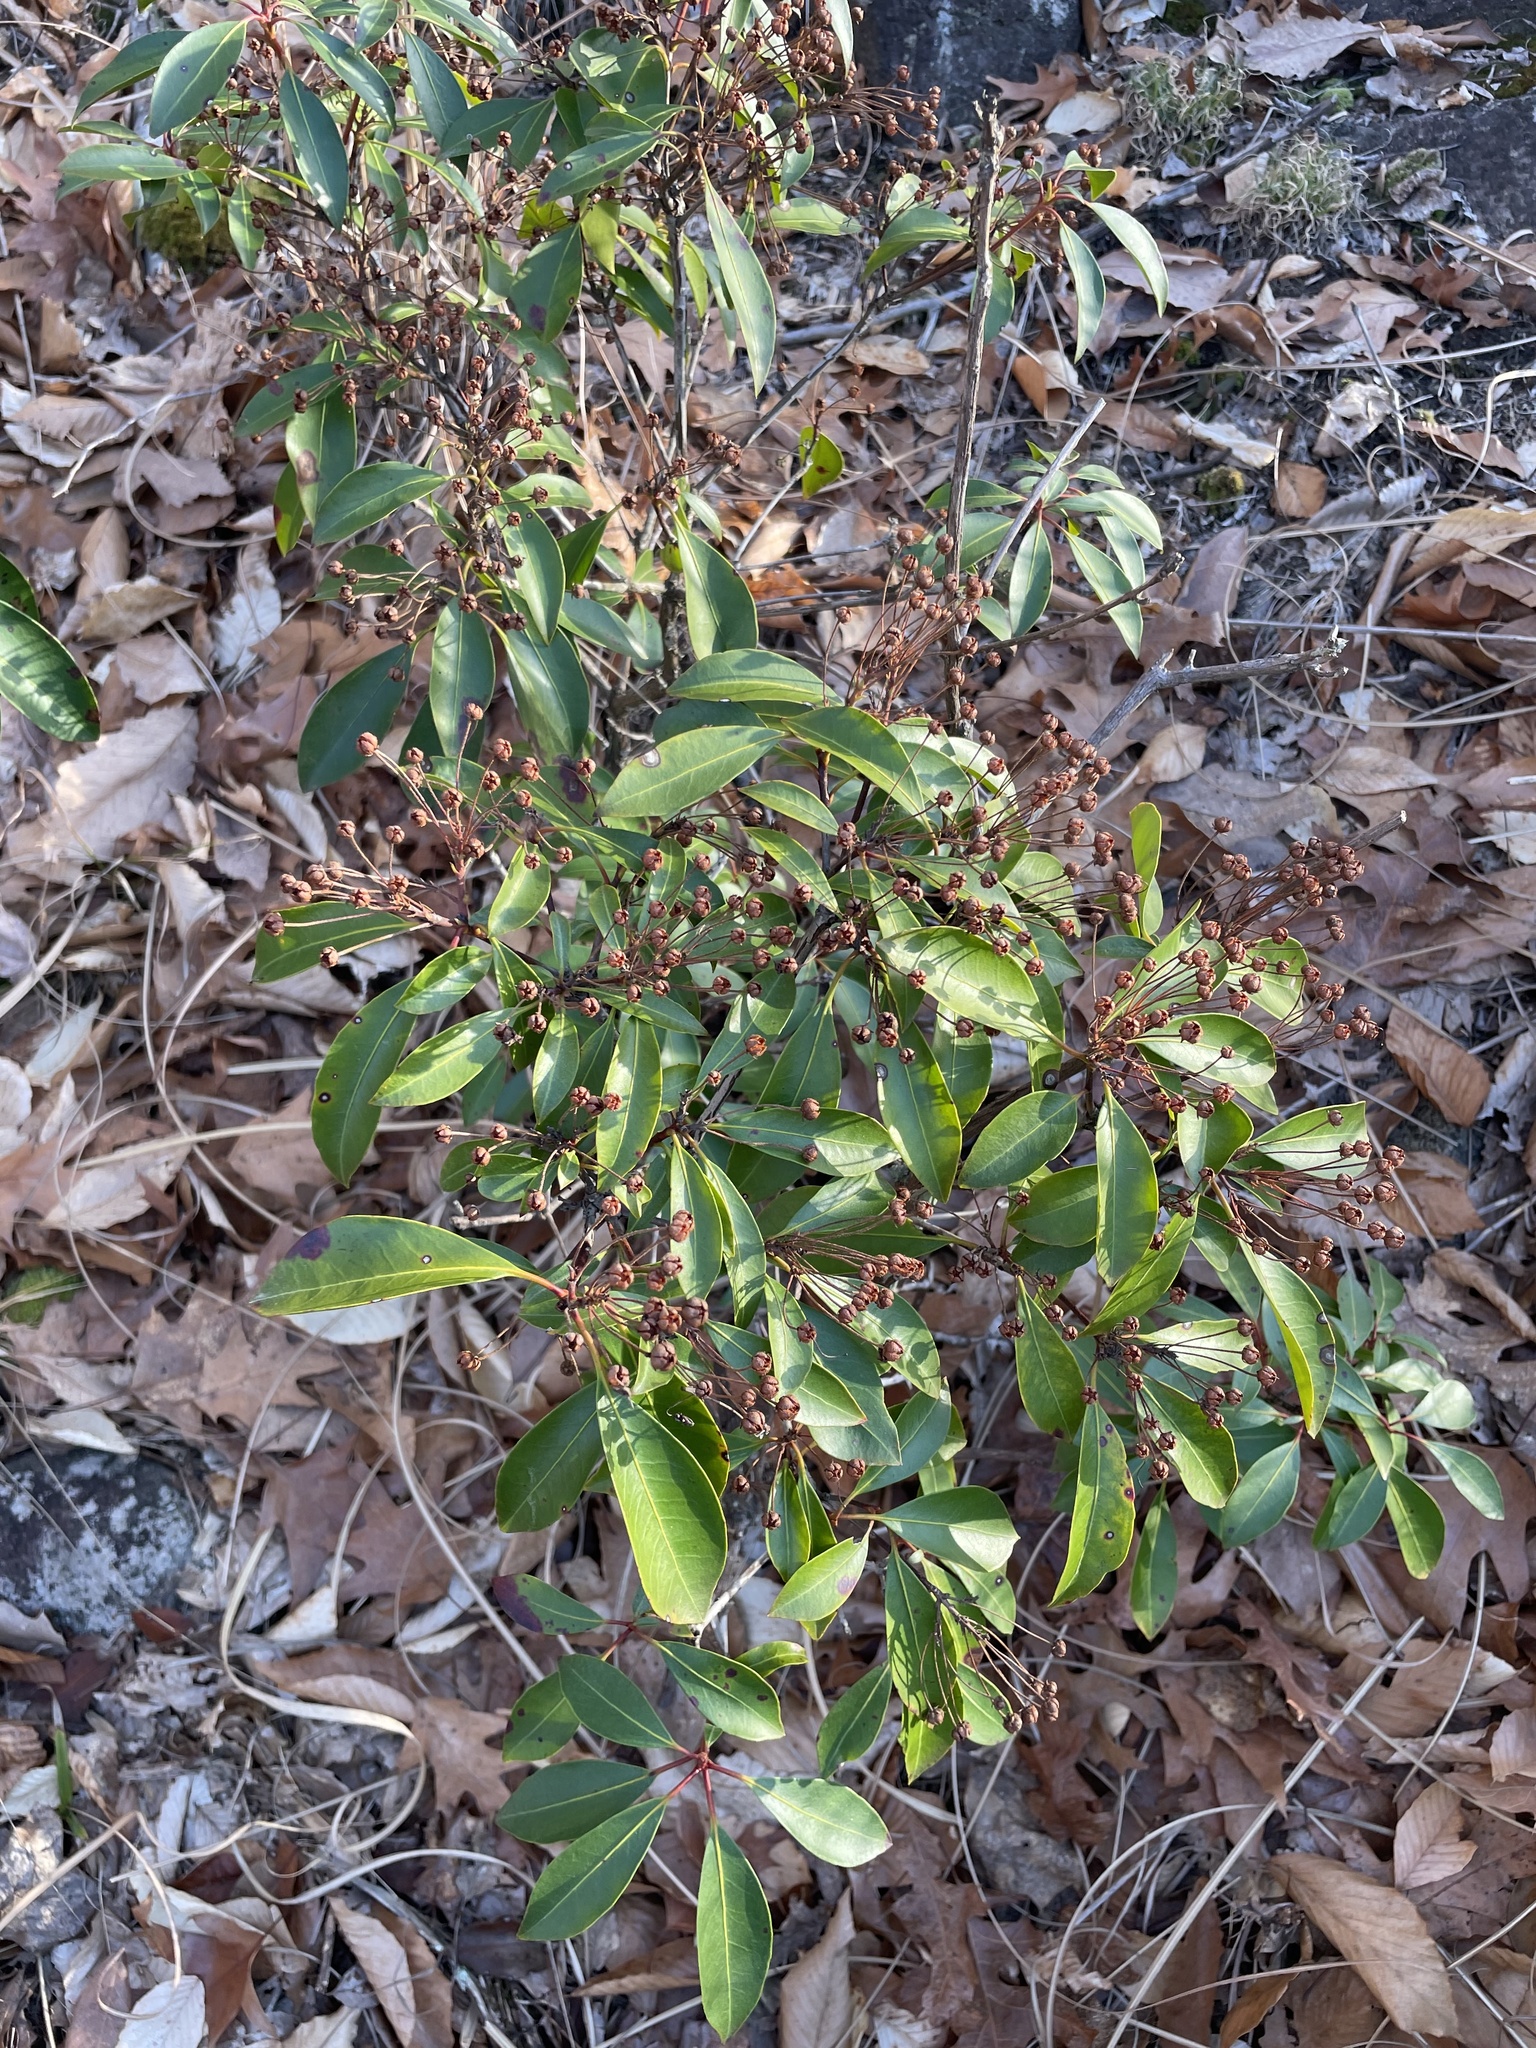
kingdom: Plantae
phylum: Tracheophyta
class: Magnoliopsida
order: Ericales
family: Ericaceae
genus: Kalmia
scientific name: Kalmia latifolia
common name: Mountain-laurel
